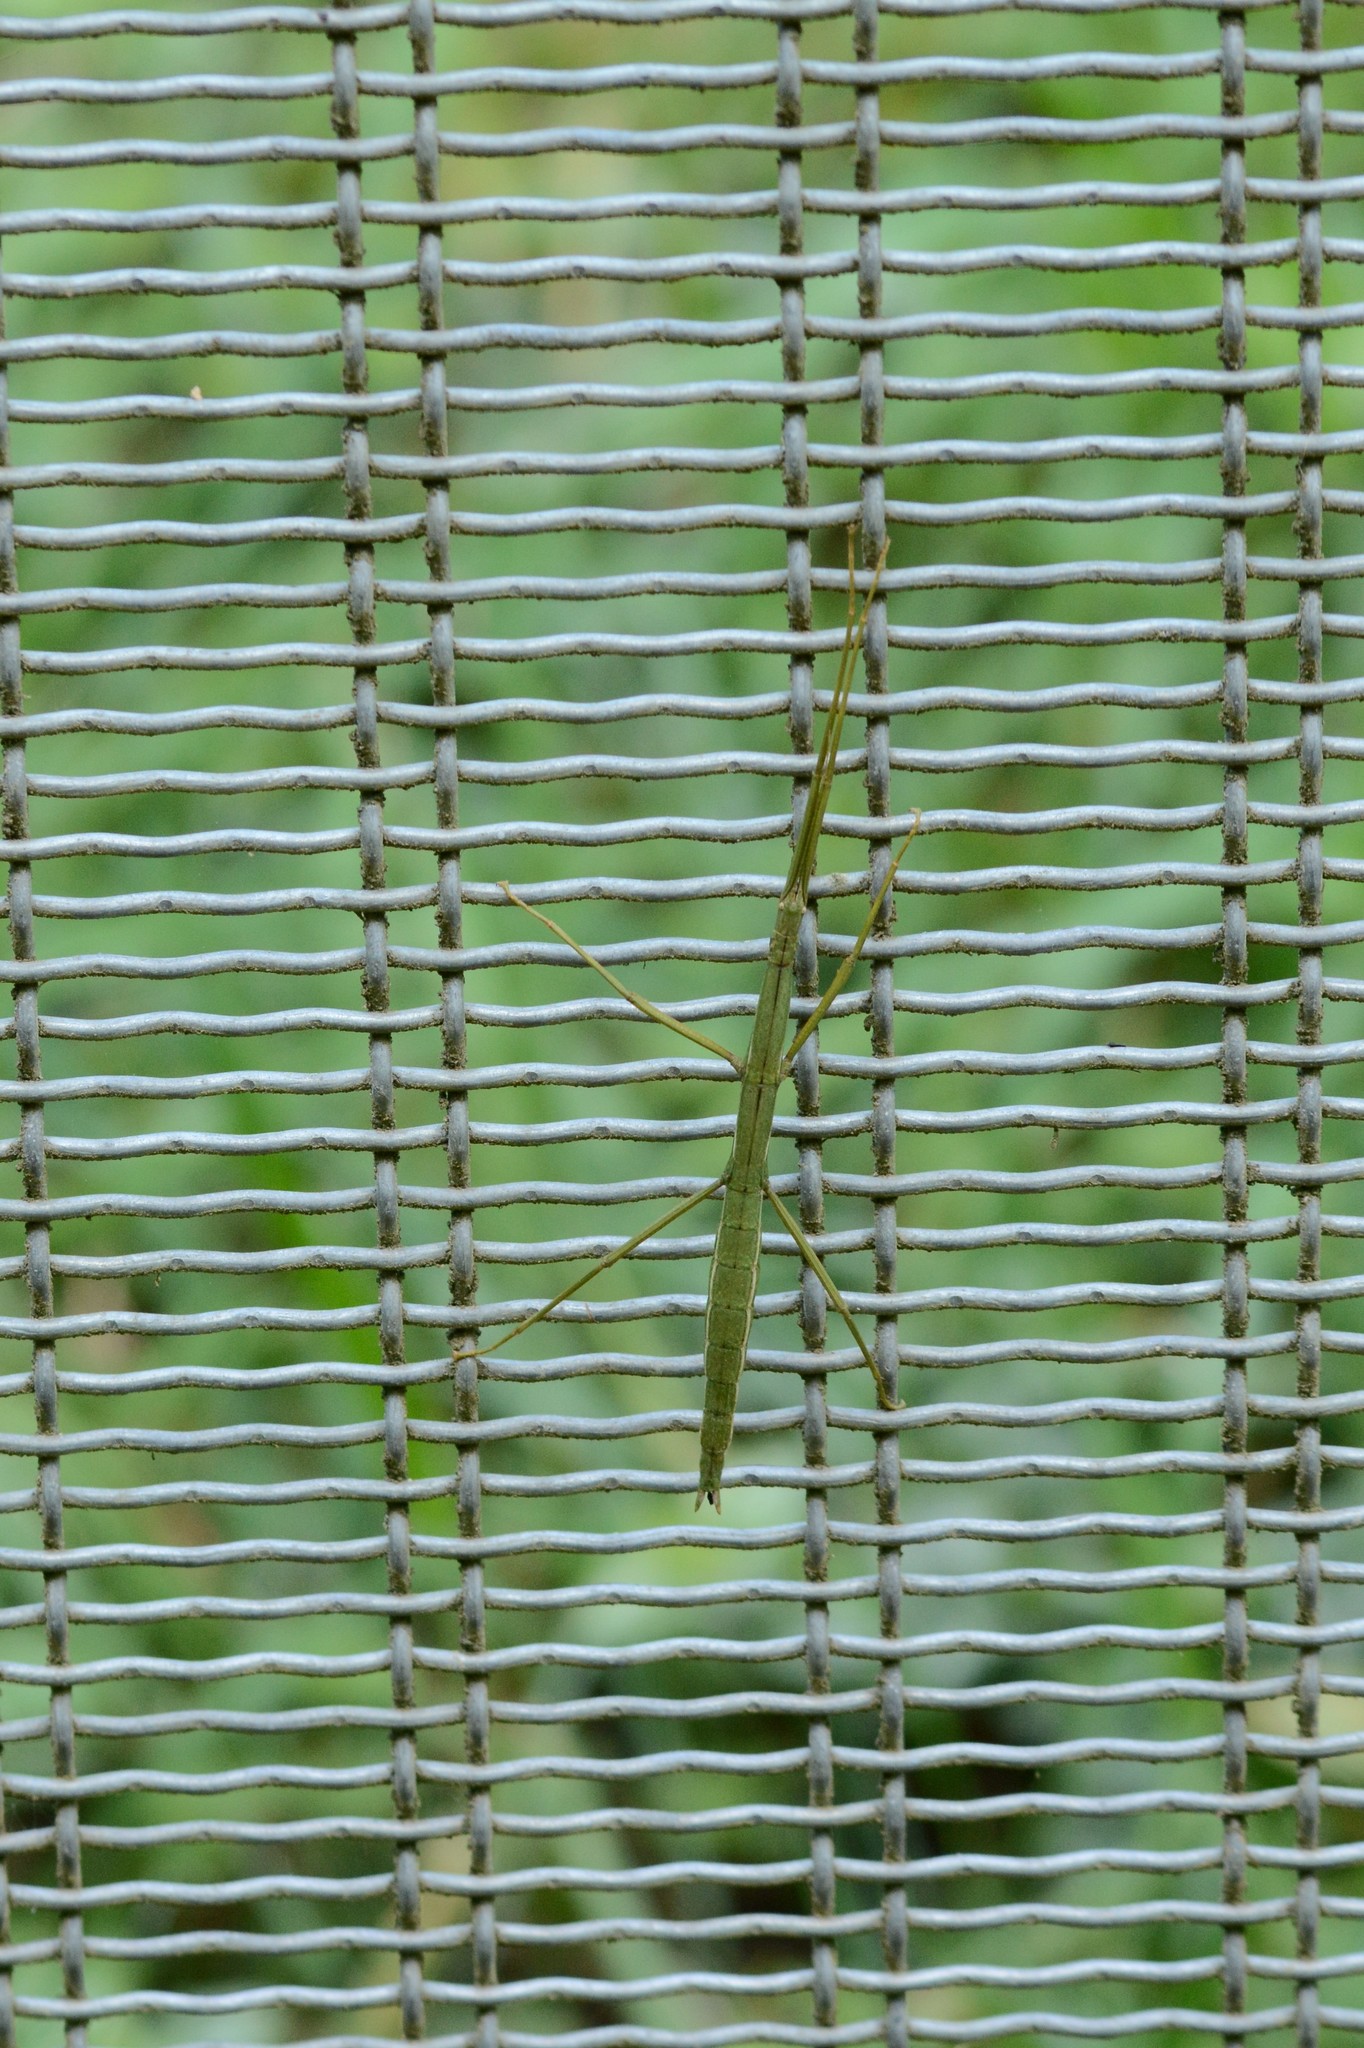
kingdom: Animalia
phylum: Arthropoda
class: Insecta
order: Phasmida
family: Phasmatidae
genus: Clitarchus
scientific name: Clitarchus hookeri
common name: Smooth stick insect
